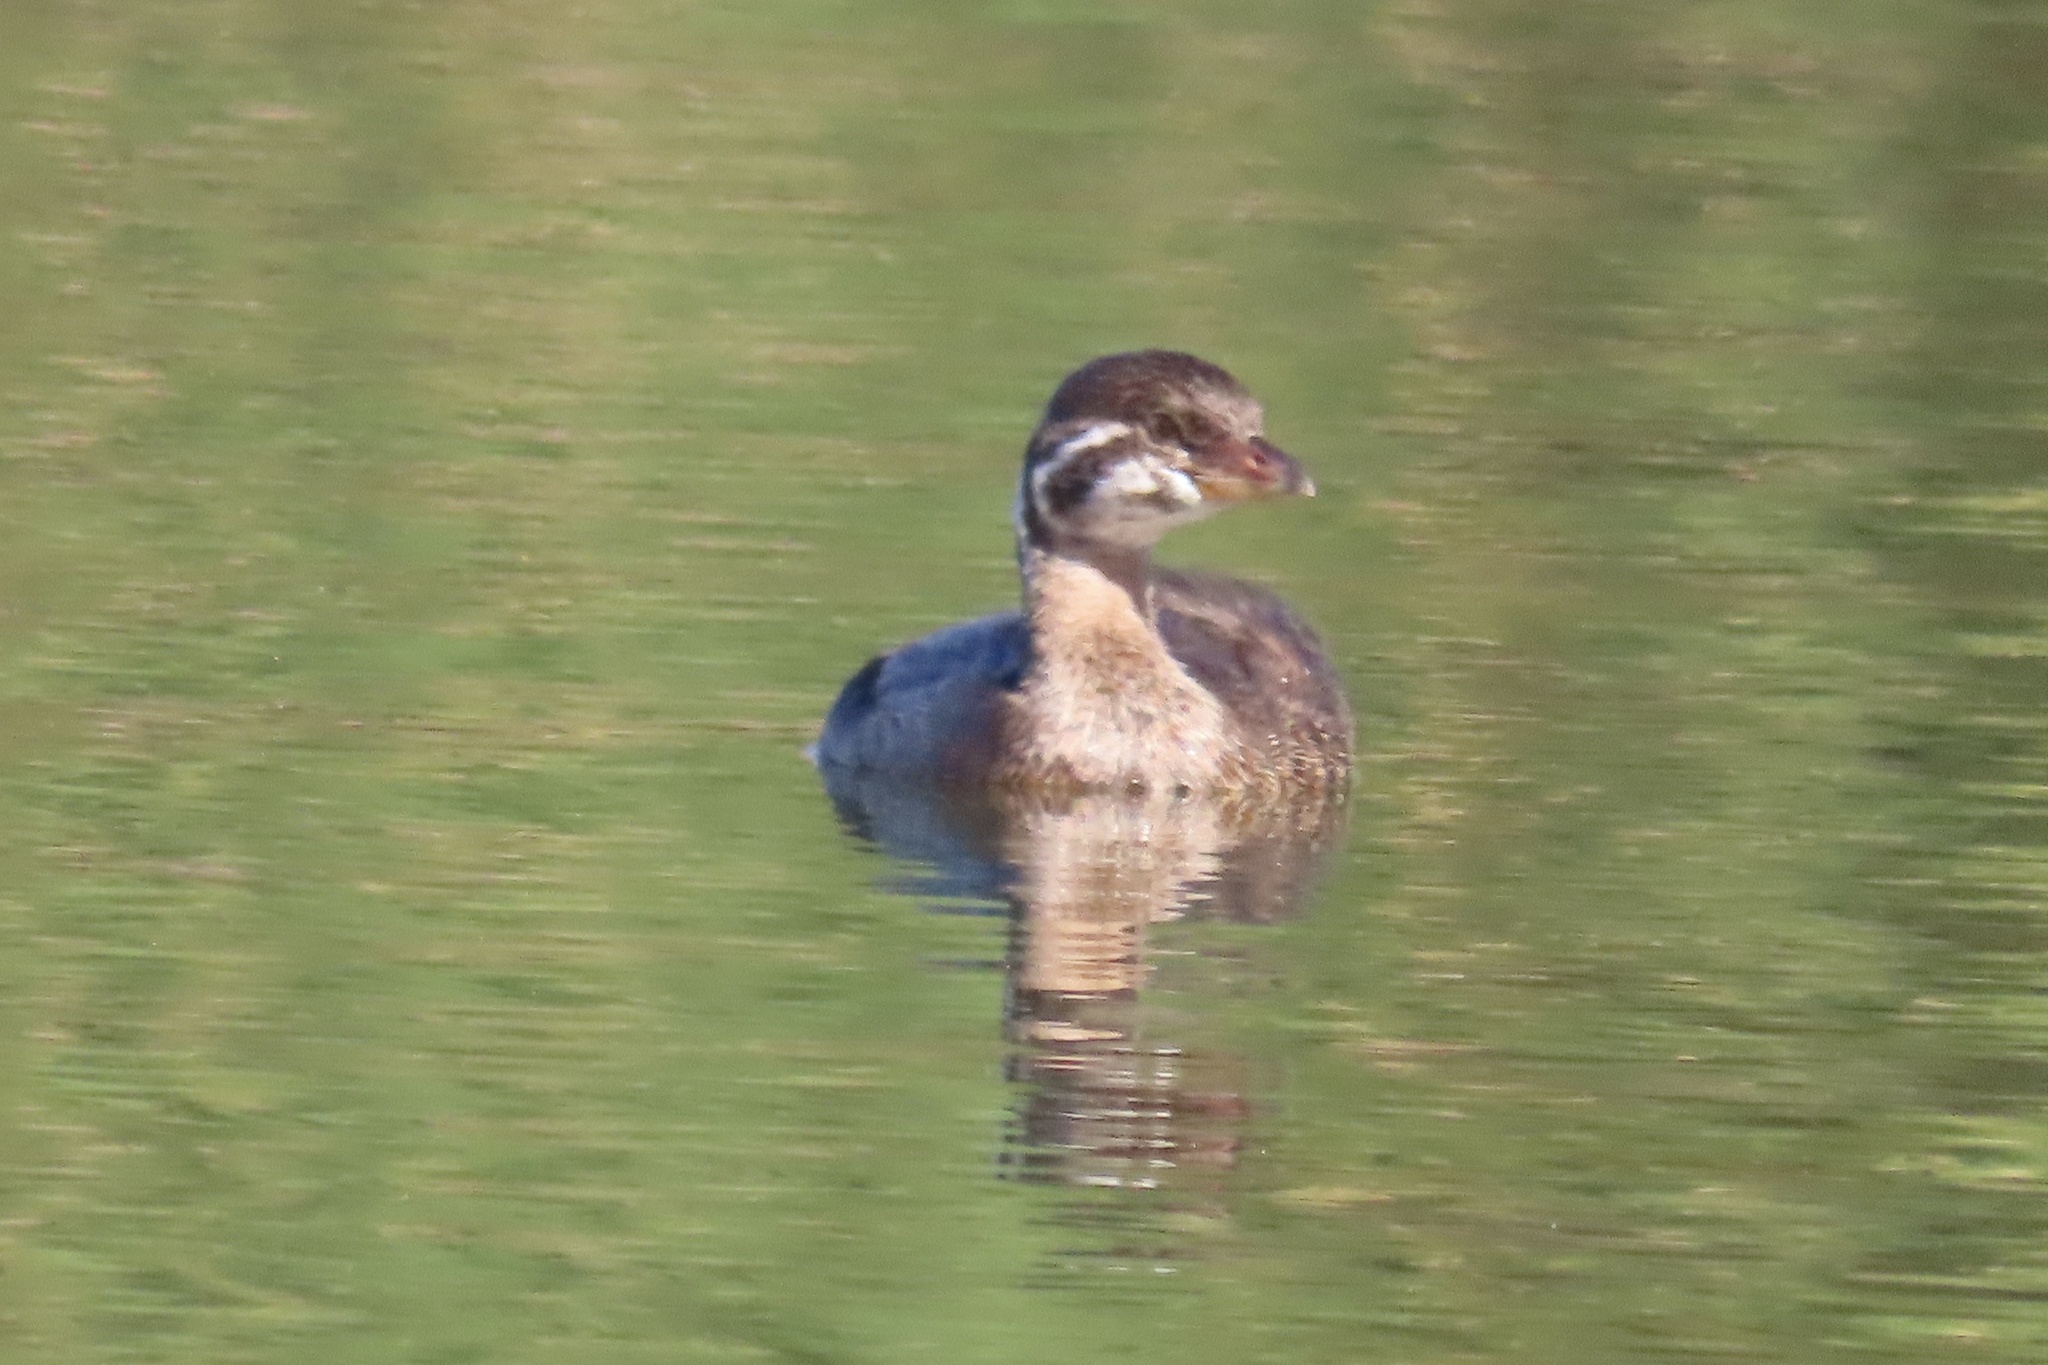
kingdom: Animalia
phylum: Chordata
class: Aves
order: Podicipediformes
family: Podicipedidae
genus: Podilymbus
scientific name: Podilymbus podiceps
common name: Pied-billed grebe
